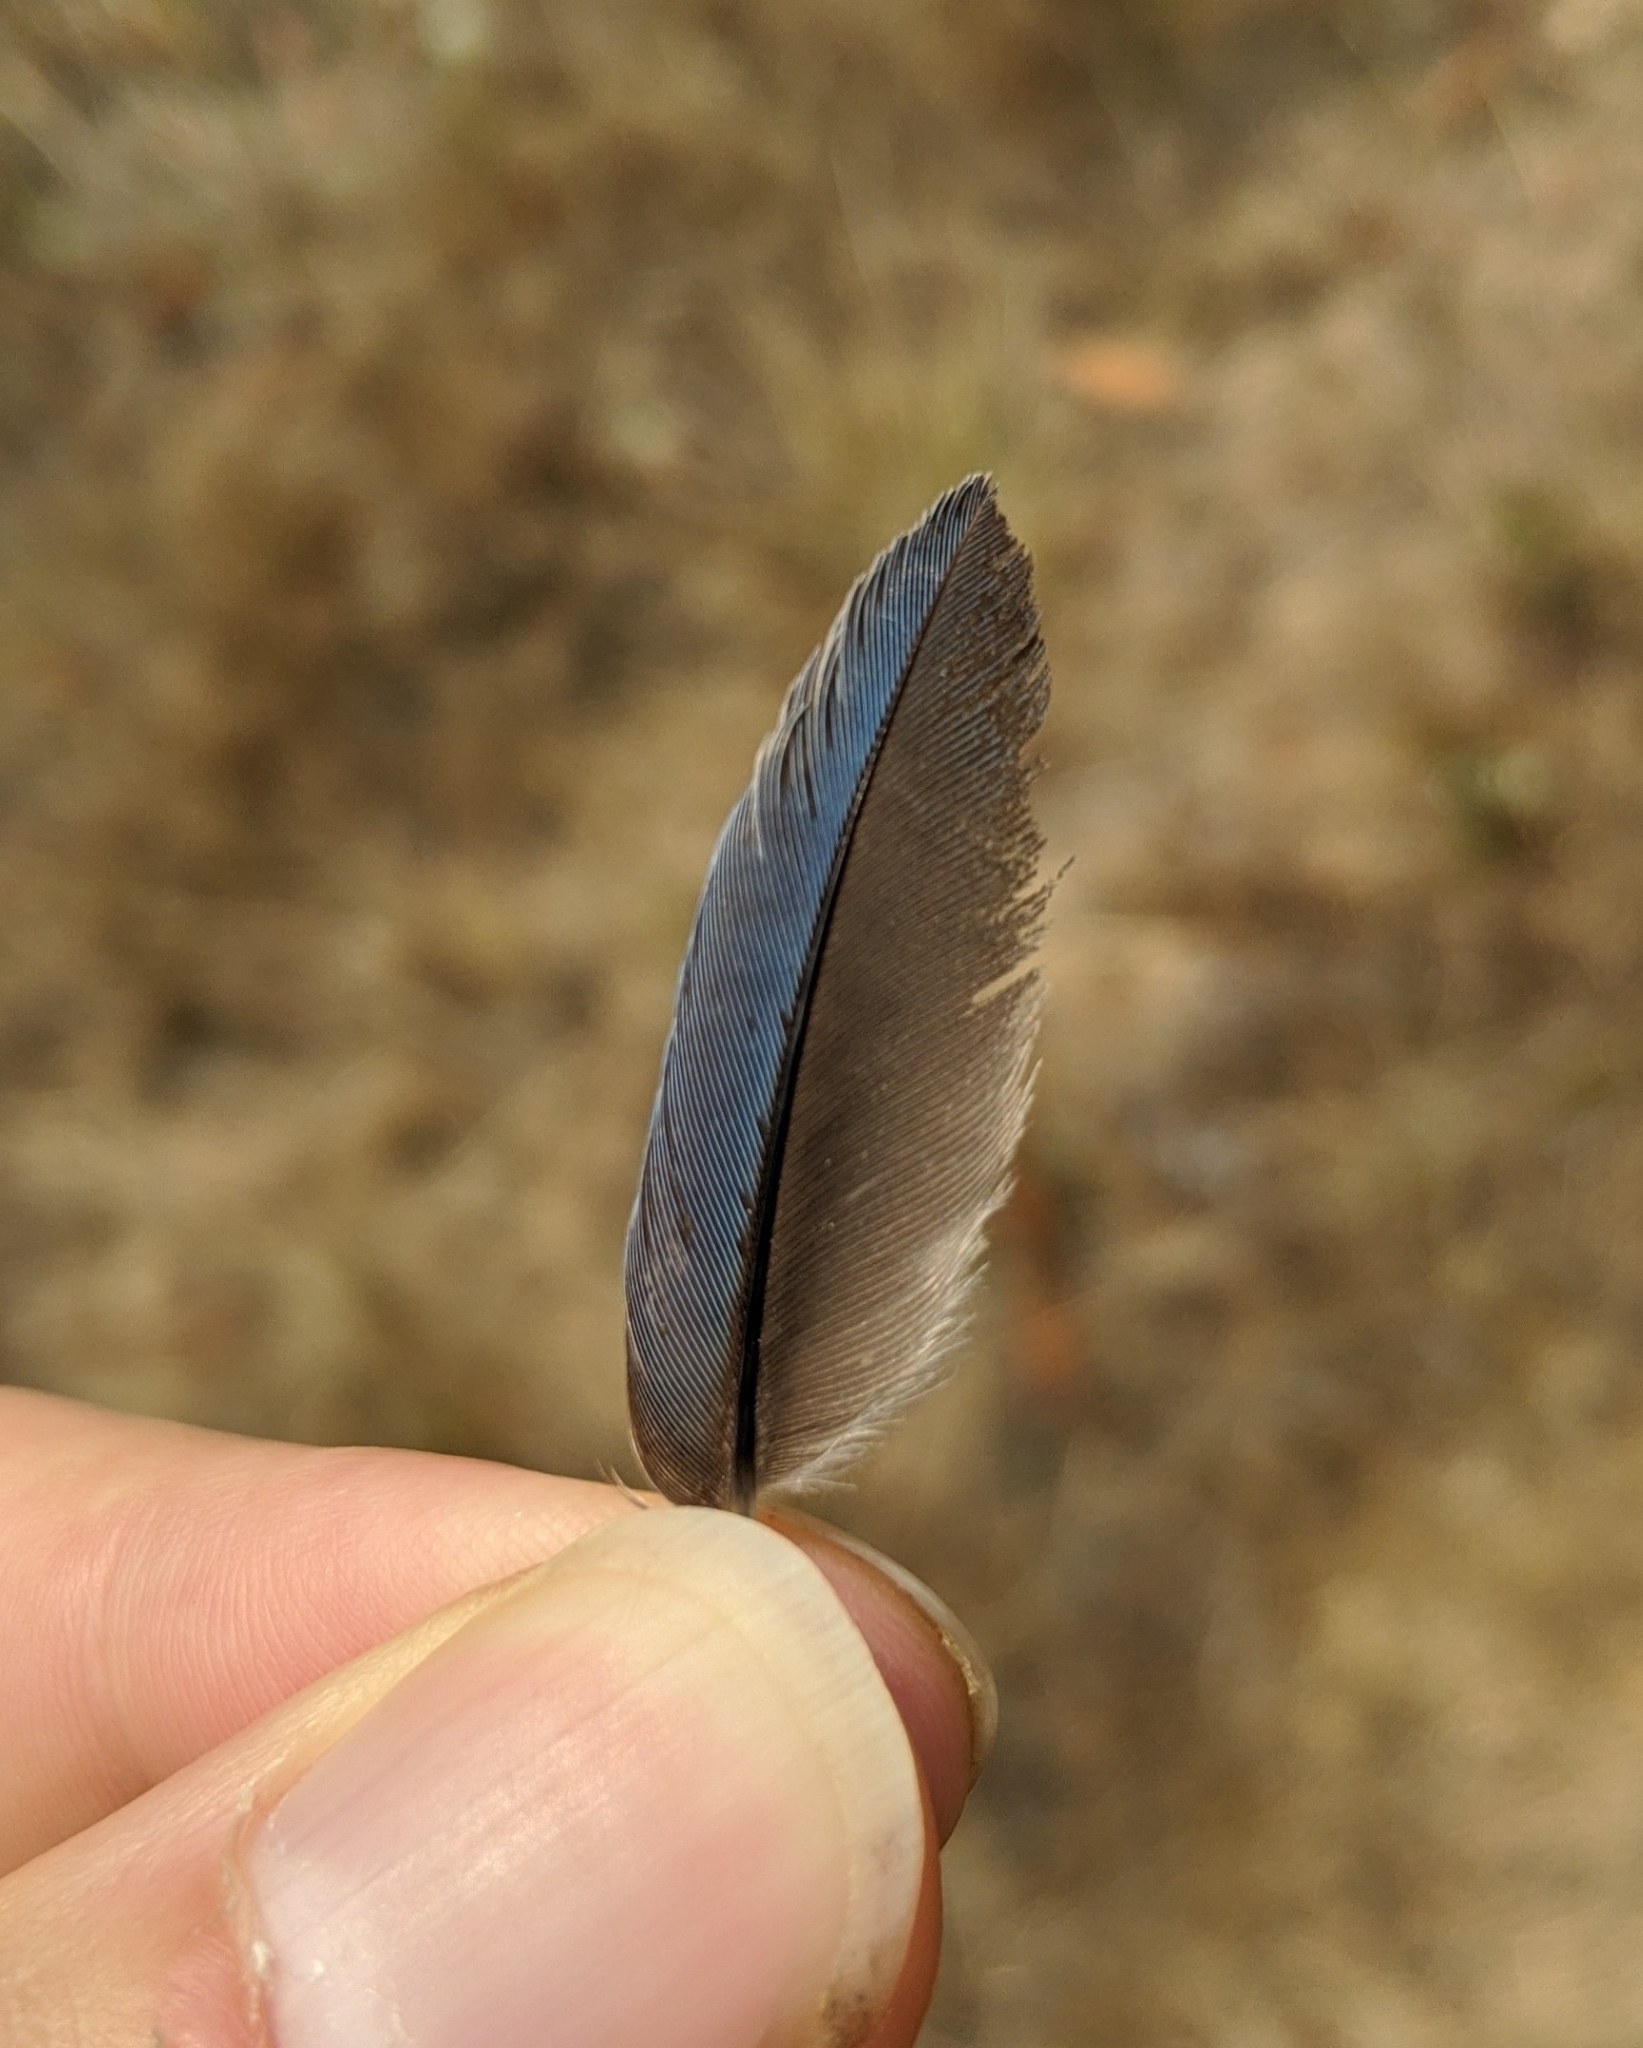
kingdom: Animalia
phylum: Chordata
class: Aves
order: Passeriformes
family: Corvidae
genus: Aphelocoma
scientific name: Aphelocoma californica
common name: California scrub-jay
